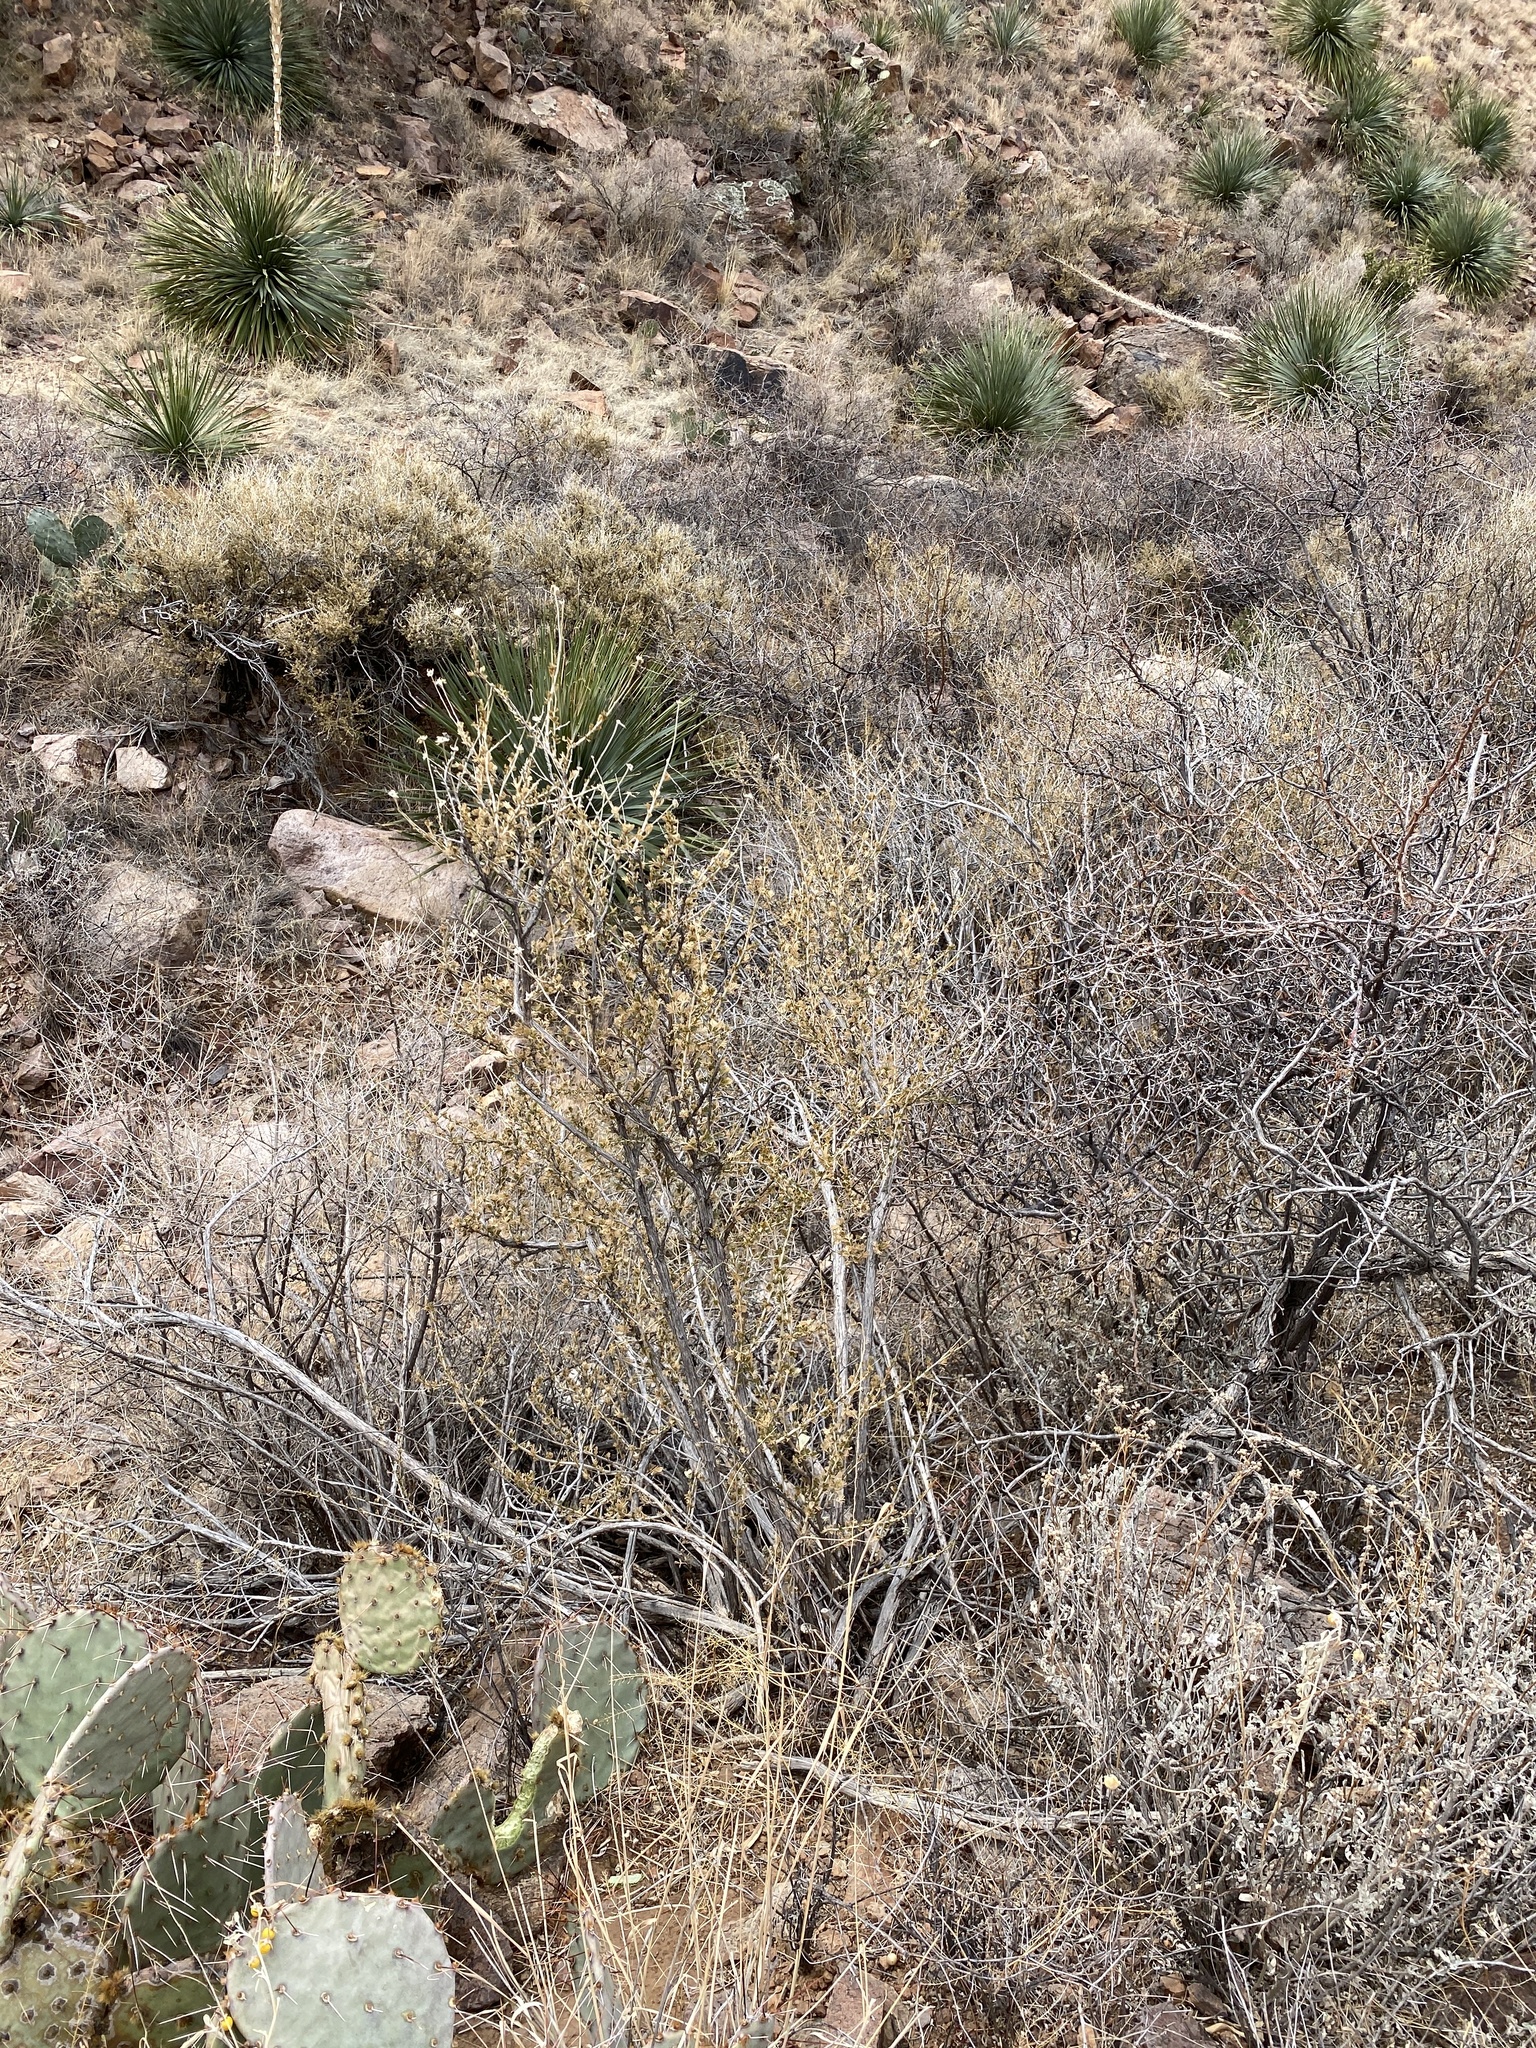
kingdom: Plantae
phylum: Tracheophyta
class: Magnoliopsida
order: Rosales
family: Rosaceae
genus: Fallugia
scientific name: Fallugia paradoxa
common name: Apache-plume
